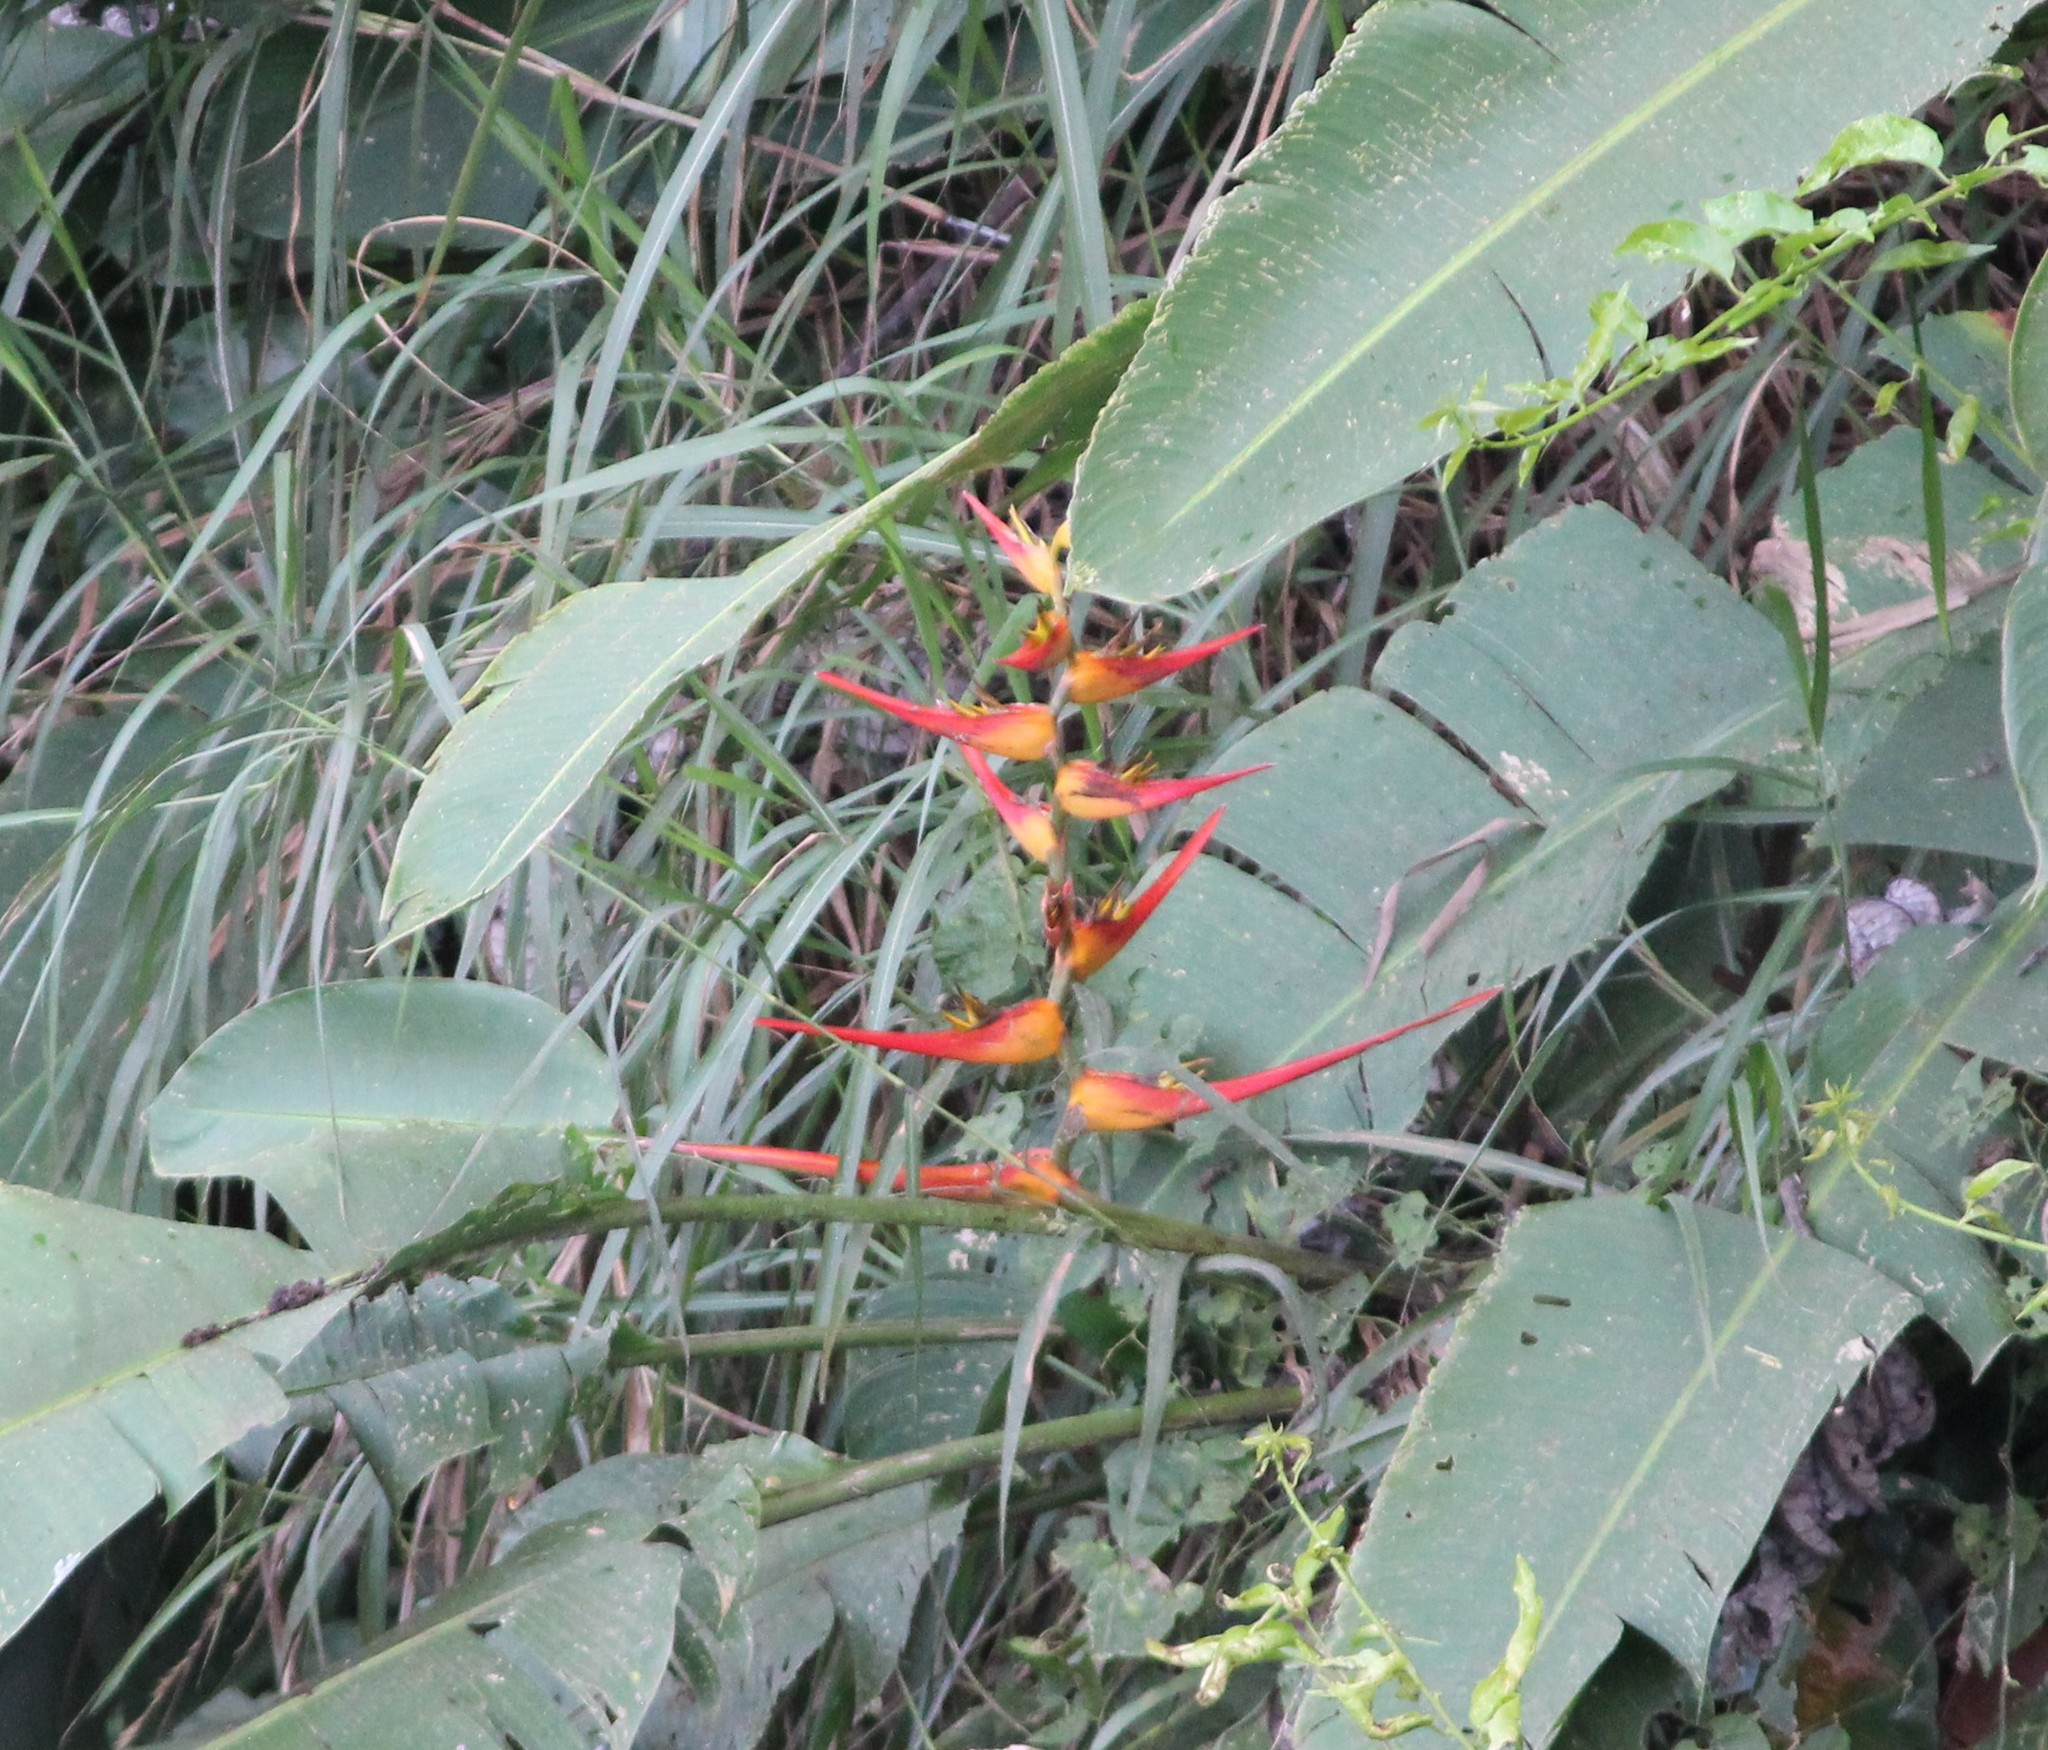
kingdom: Plantae
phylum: Tracheophyta
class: Liliopsida
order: Zingiberales
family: Heliconiaceae
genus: Heliconia
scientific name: Heliconia latispatha
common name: Expanded lobsterclaw
